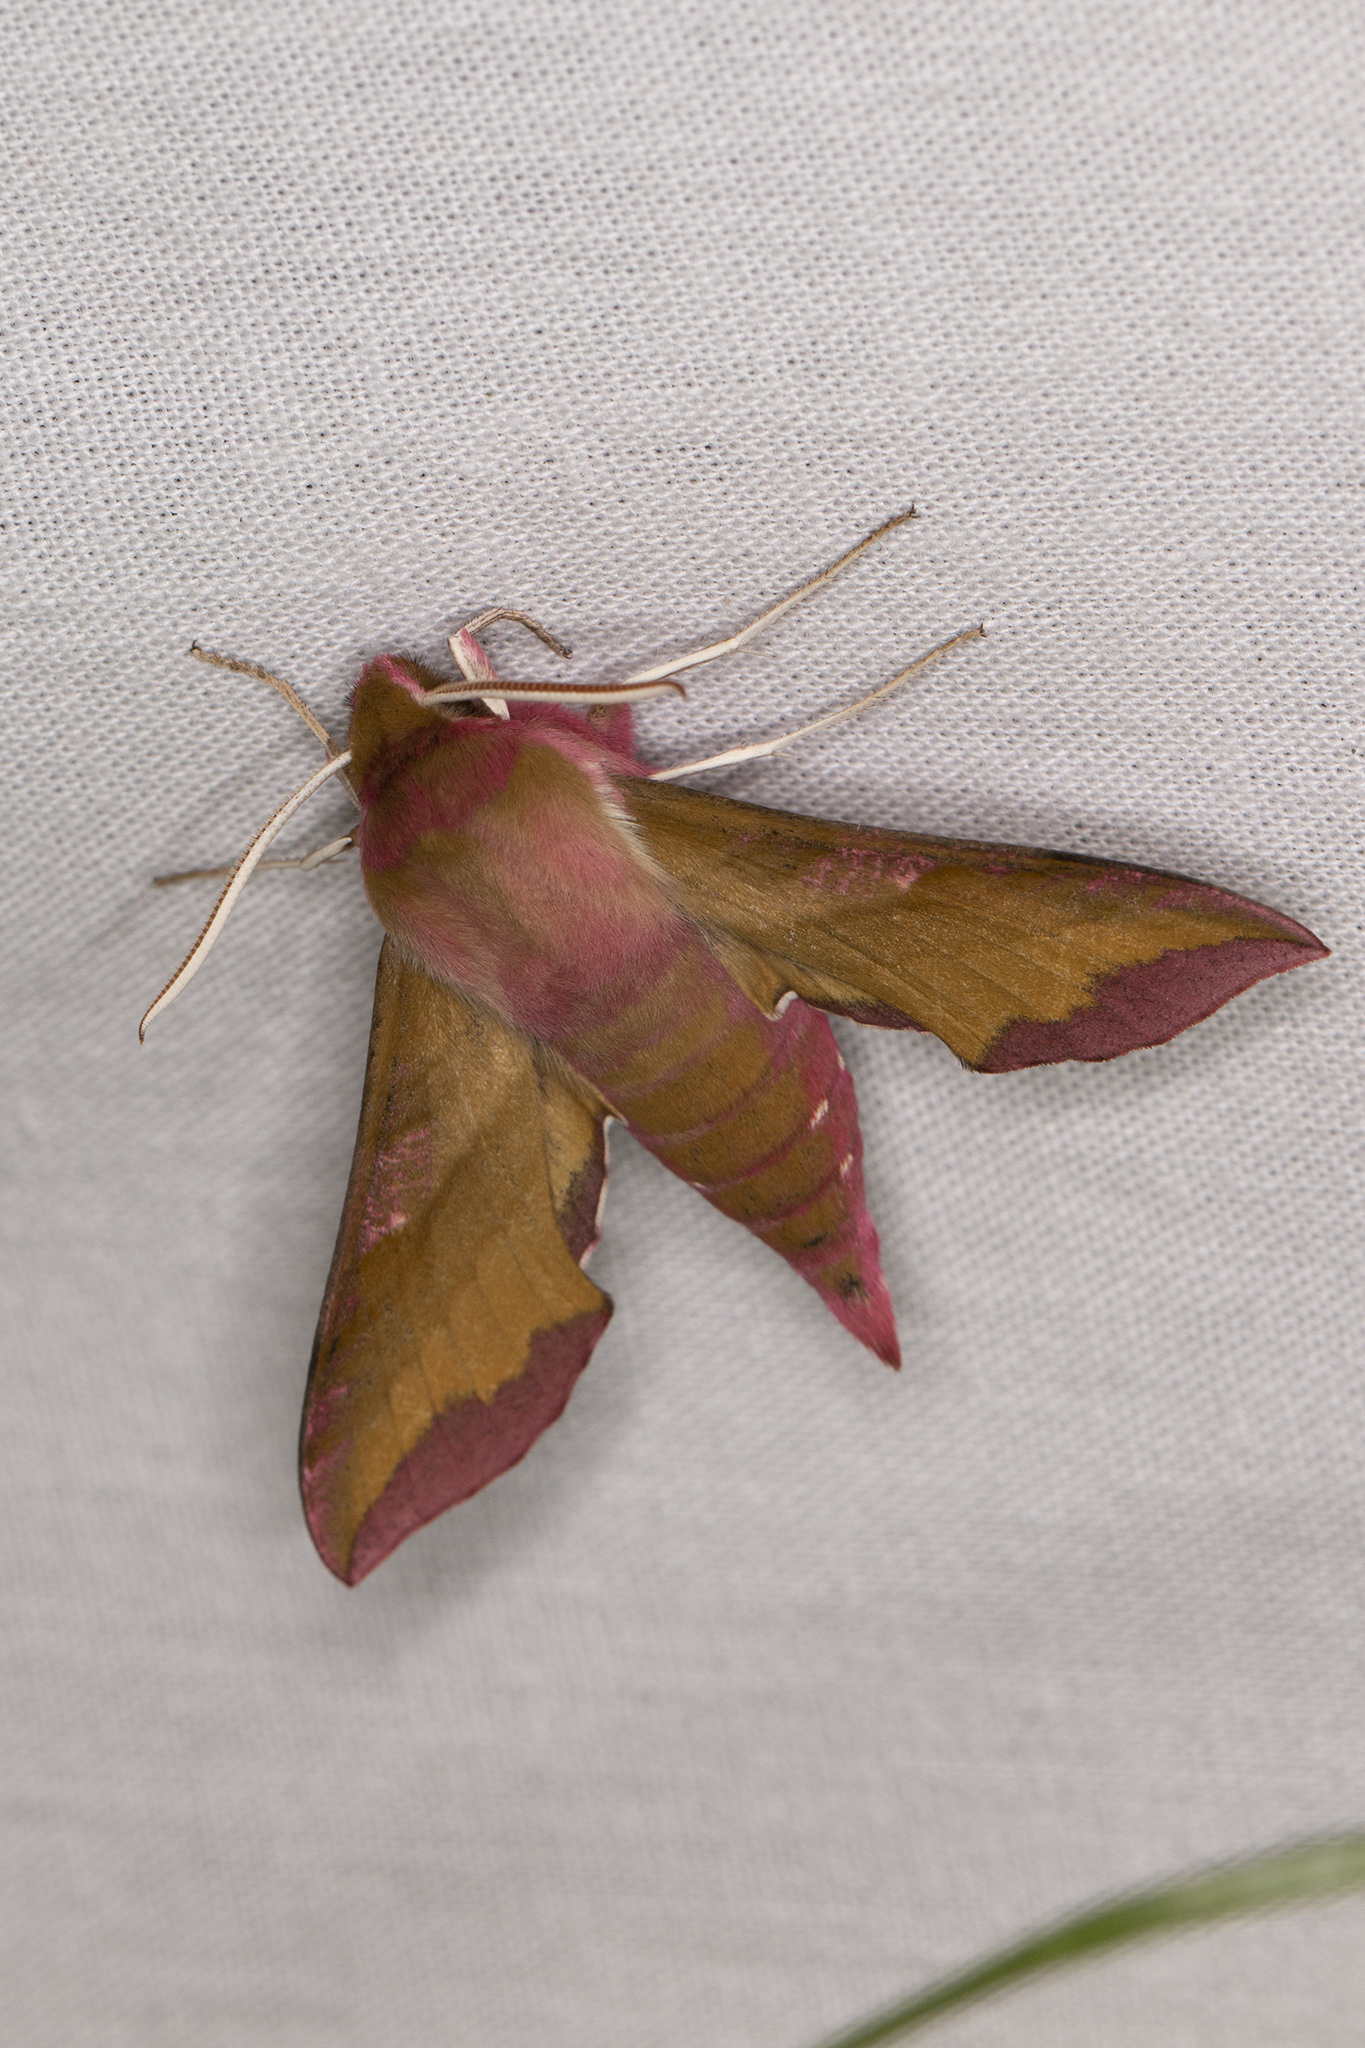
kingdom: Animalia
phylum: Arthropoda
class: Insecta
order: Lepidoptera
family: Sphingidae
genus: Deilephila
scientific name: Deilephila porcellus
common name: Small elephant hawk-moth
